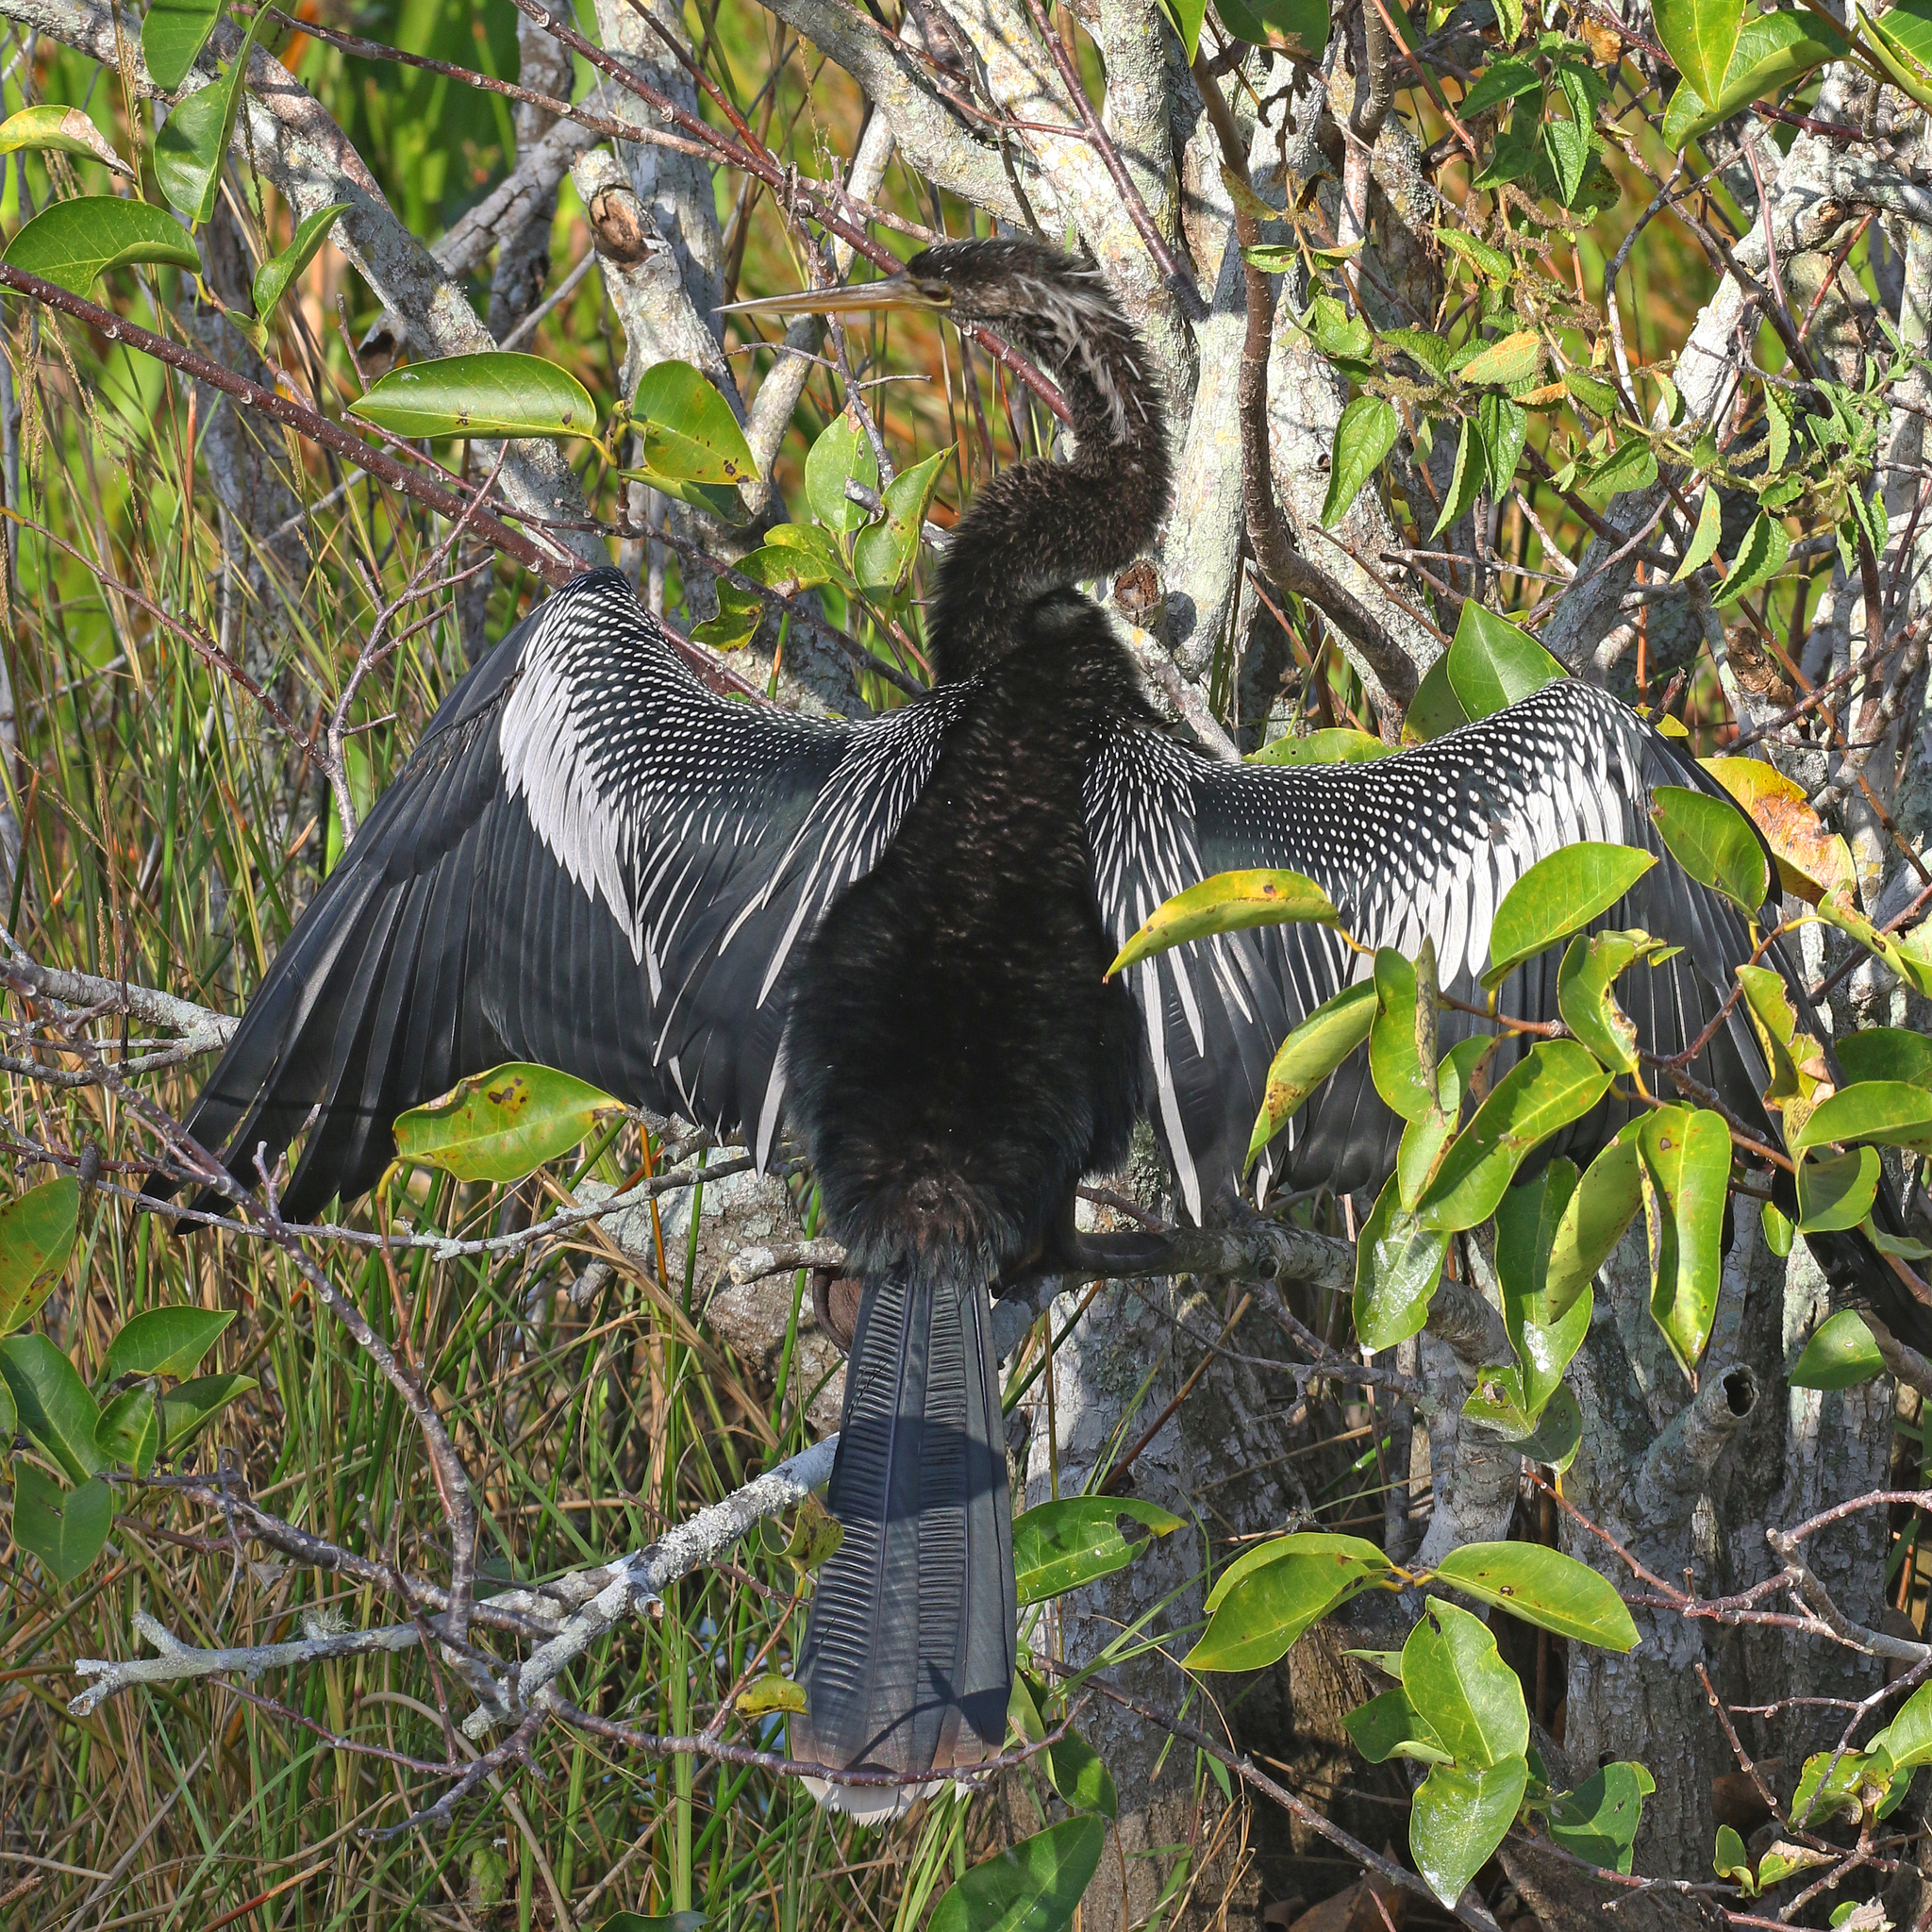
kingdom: Animalia
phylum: Chordata
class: Aves
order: Suliformes
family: Anhingidae
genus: Anhinga
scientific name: Anhinga anhinga
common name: Anhinga
